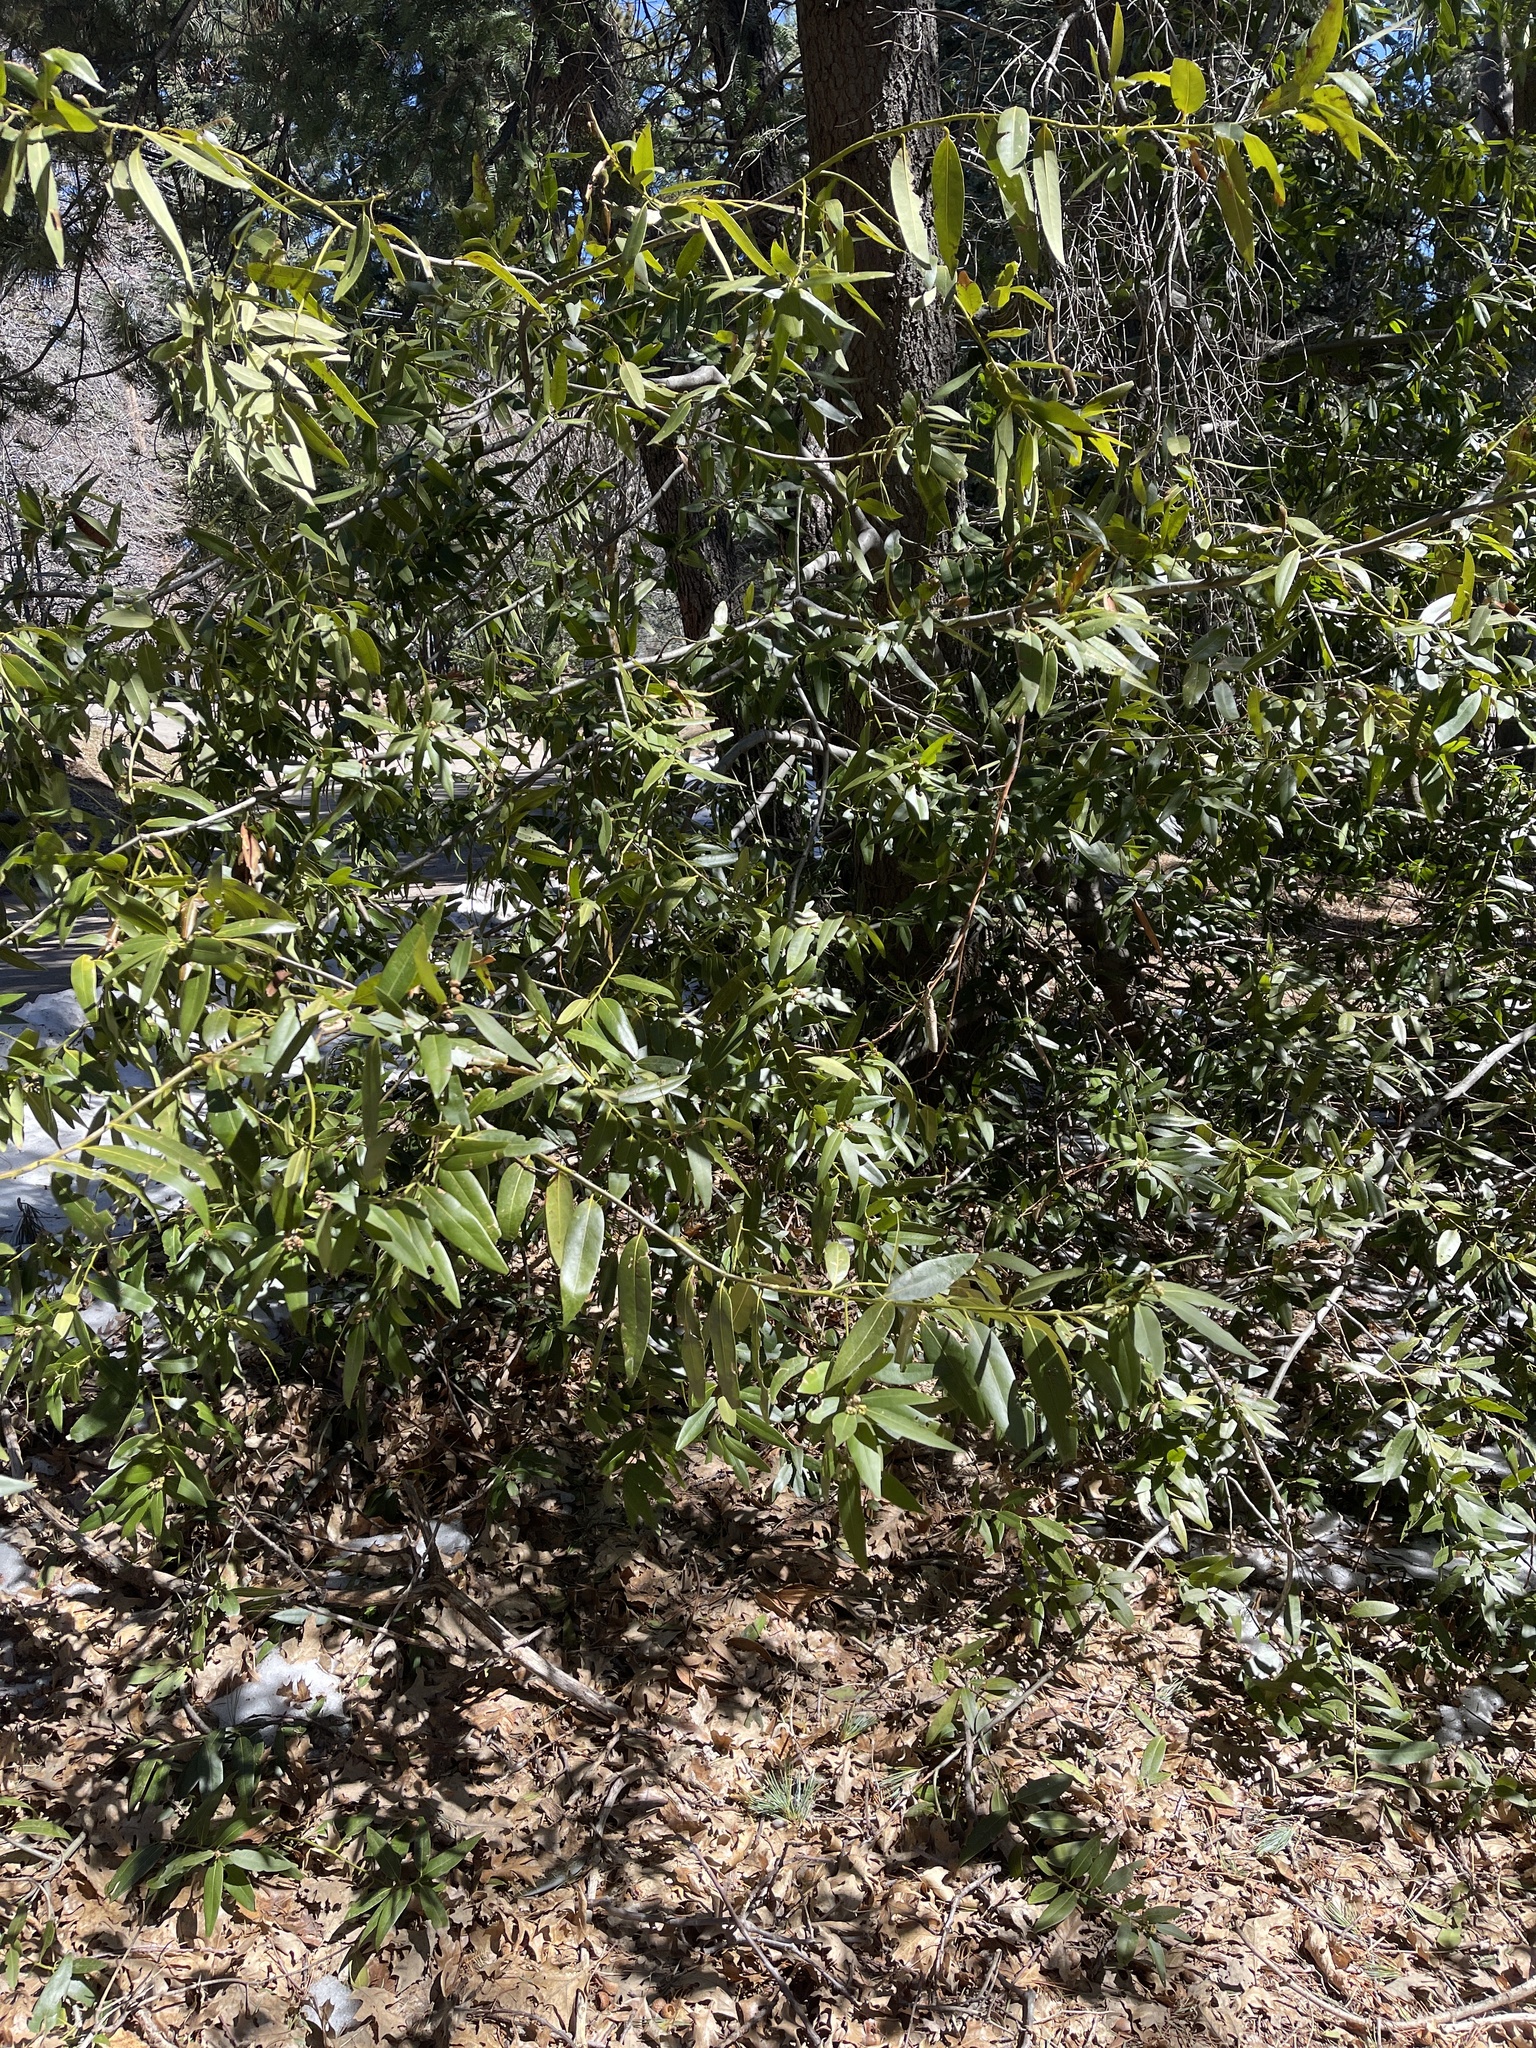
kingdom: Plantae
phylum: Tracheophyta
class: Magnoliopsida
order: Laurales
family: Lauraceae
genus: Umbellularia
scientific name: Umbellularia californica
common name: California bay
